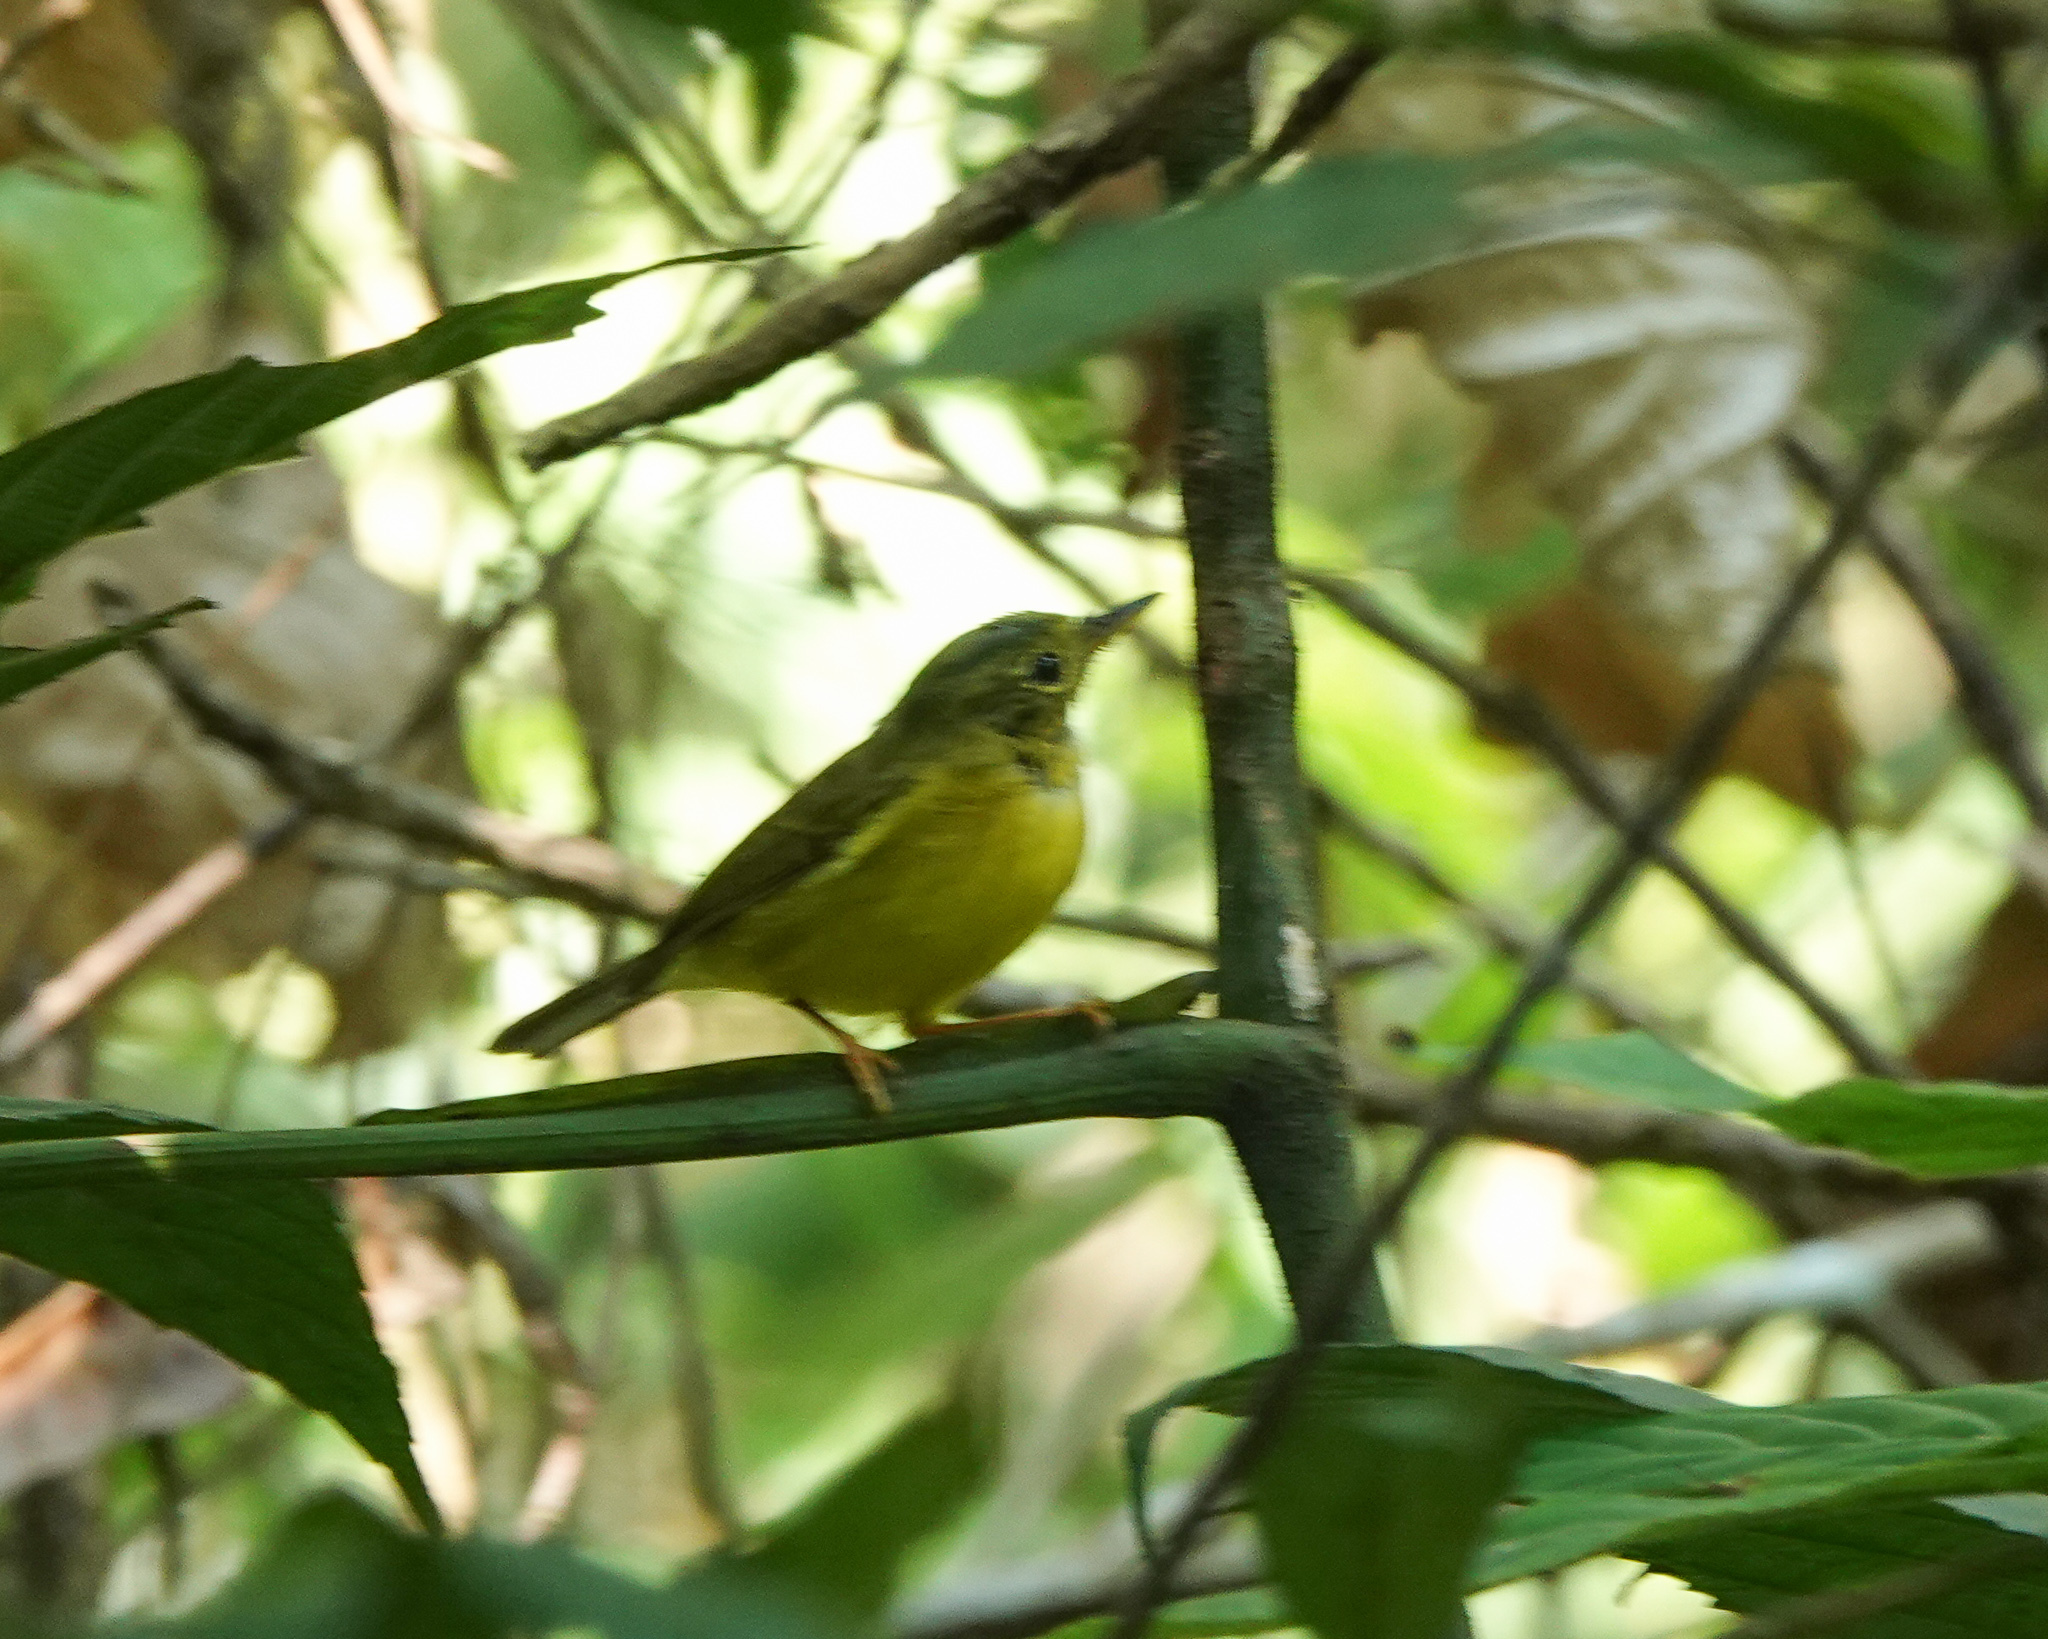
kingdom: Animalia
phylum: Chordata
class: Aves
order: Passeriformes
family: Phylloscopidae
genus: Seicercus
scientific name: Seicercus burkii
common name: Green-crowned warbler
